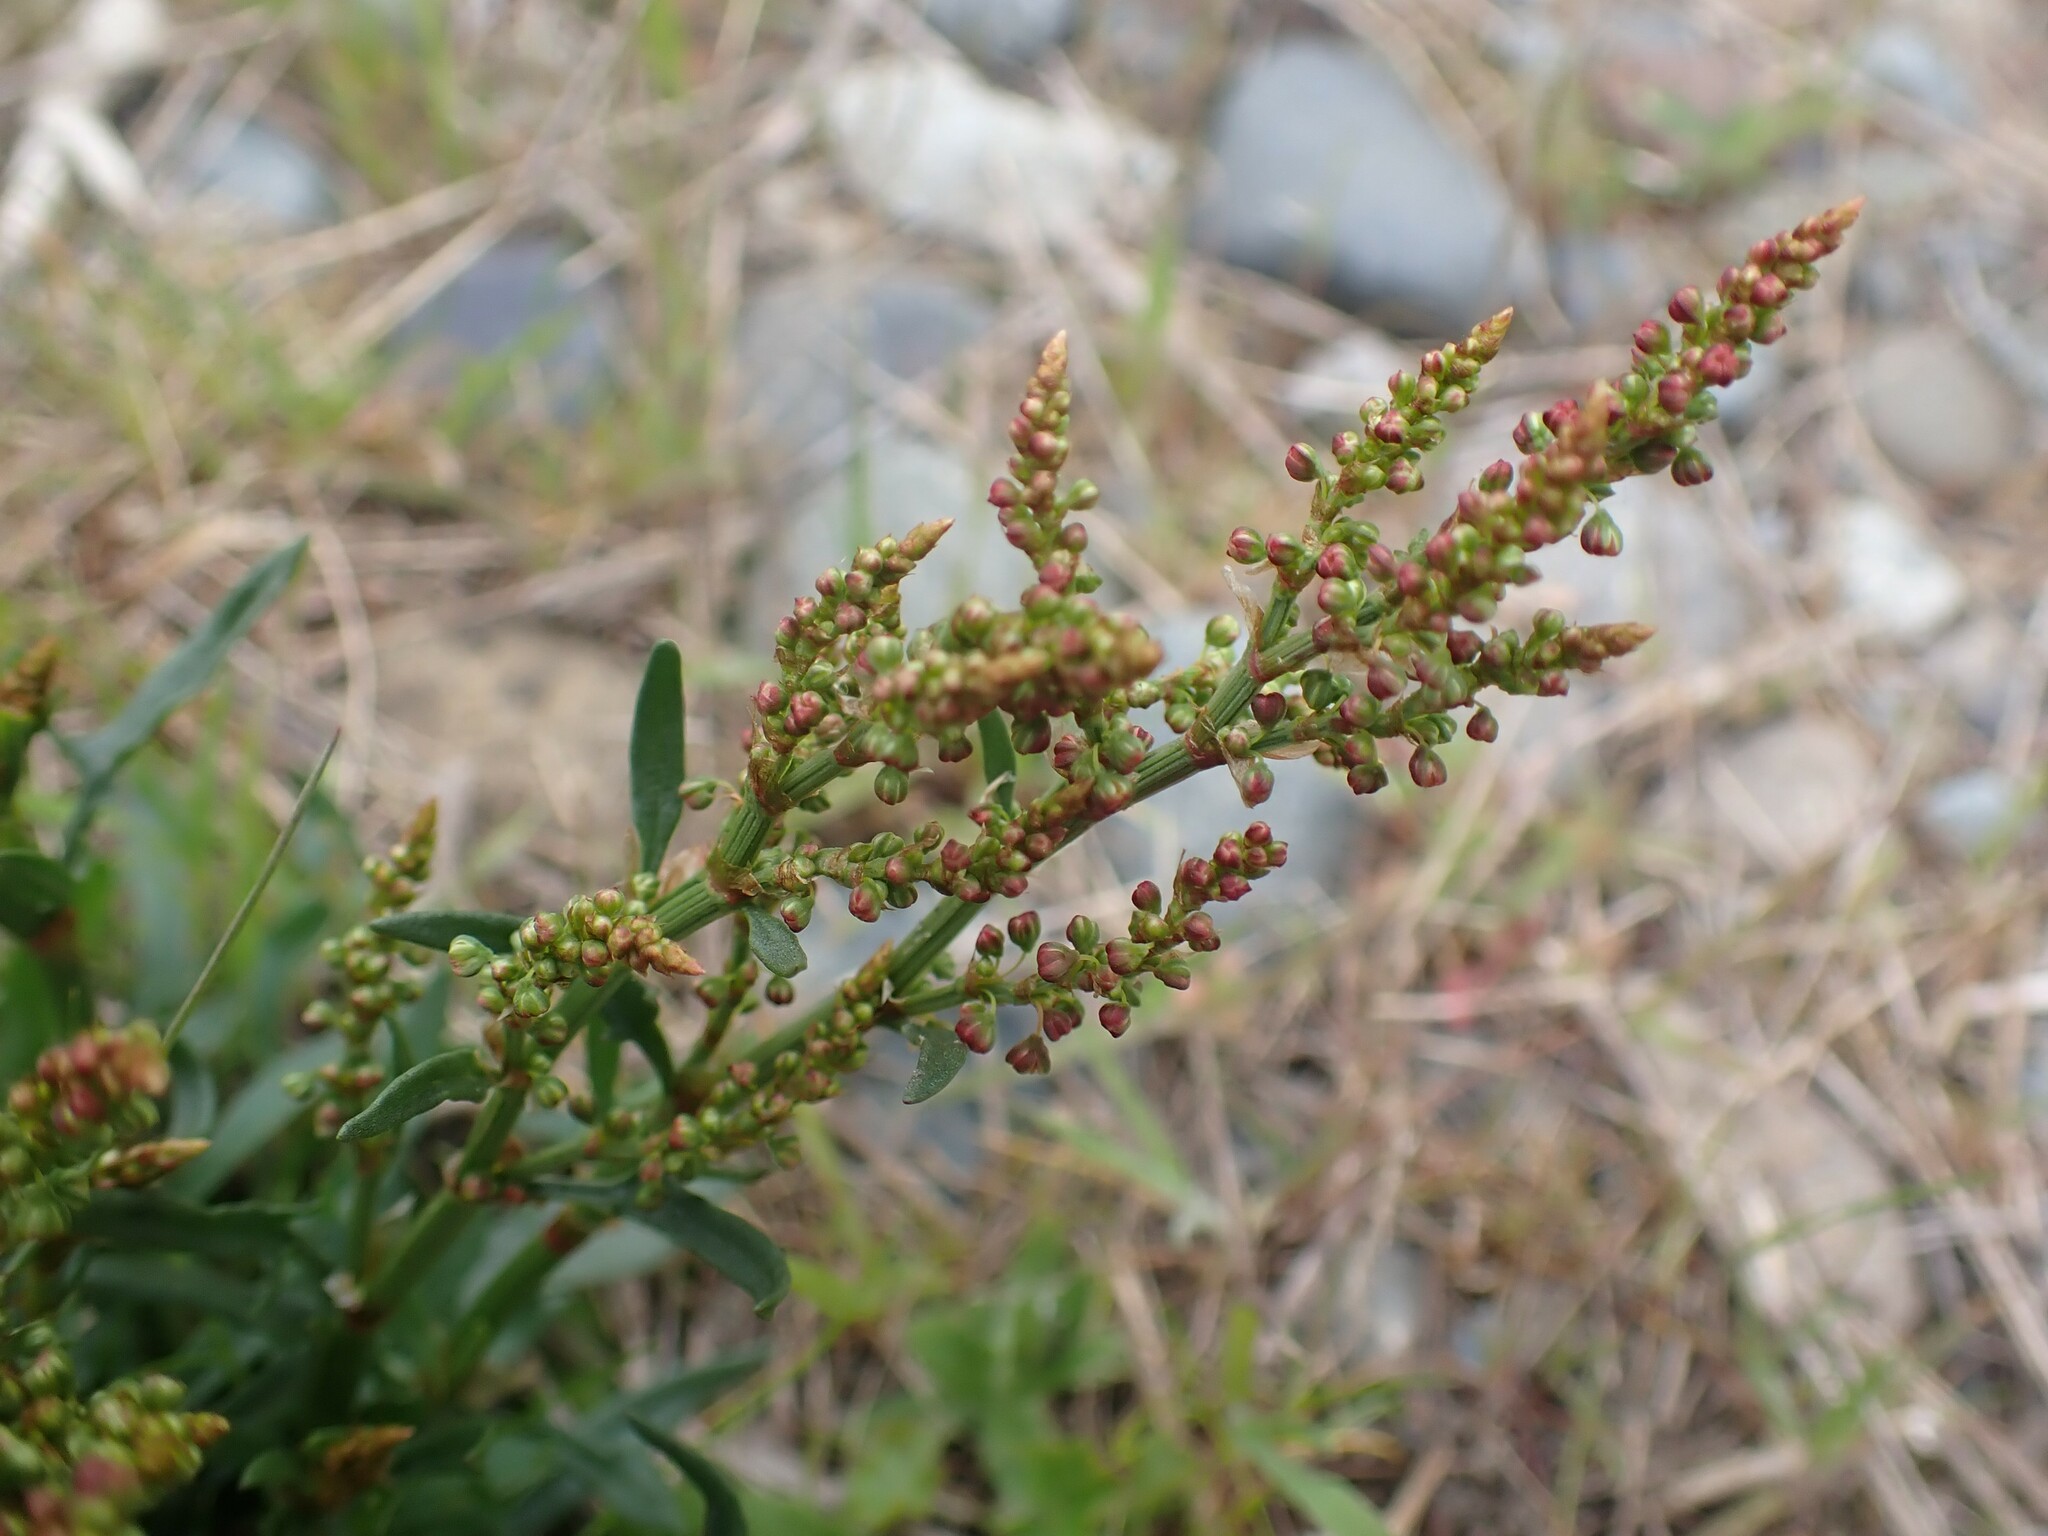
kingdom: Plantae
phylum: Tracheophyta
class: Magnoliopsida
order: Caryophyllales
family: Polygonaceae
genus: Rumex
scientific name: Rumex acetosella
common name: Common sheep sorrel
